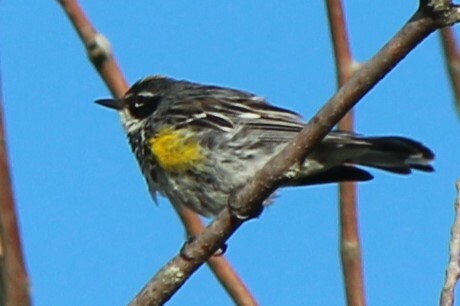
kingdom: Animalia
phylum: Chordata
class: Aves
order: Passeriformes
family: Parulidae
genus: Setophaga
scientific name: Setophaga coronata
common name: Myrtle warbler
